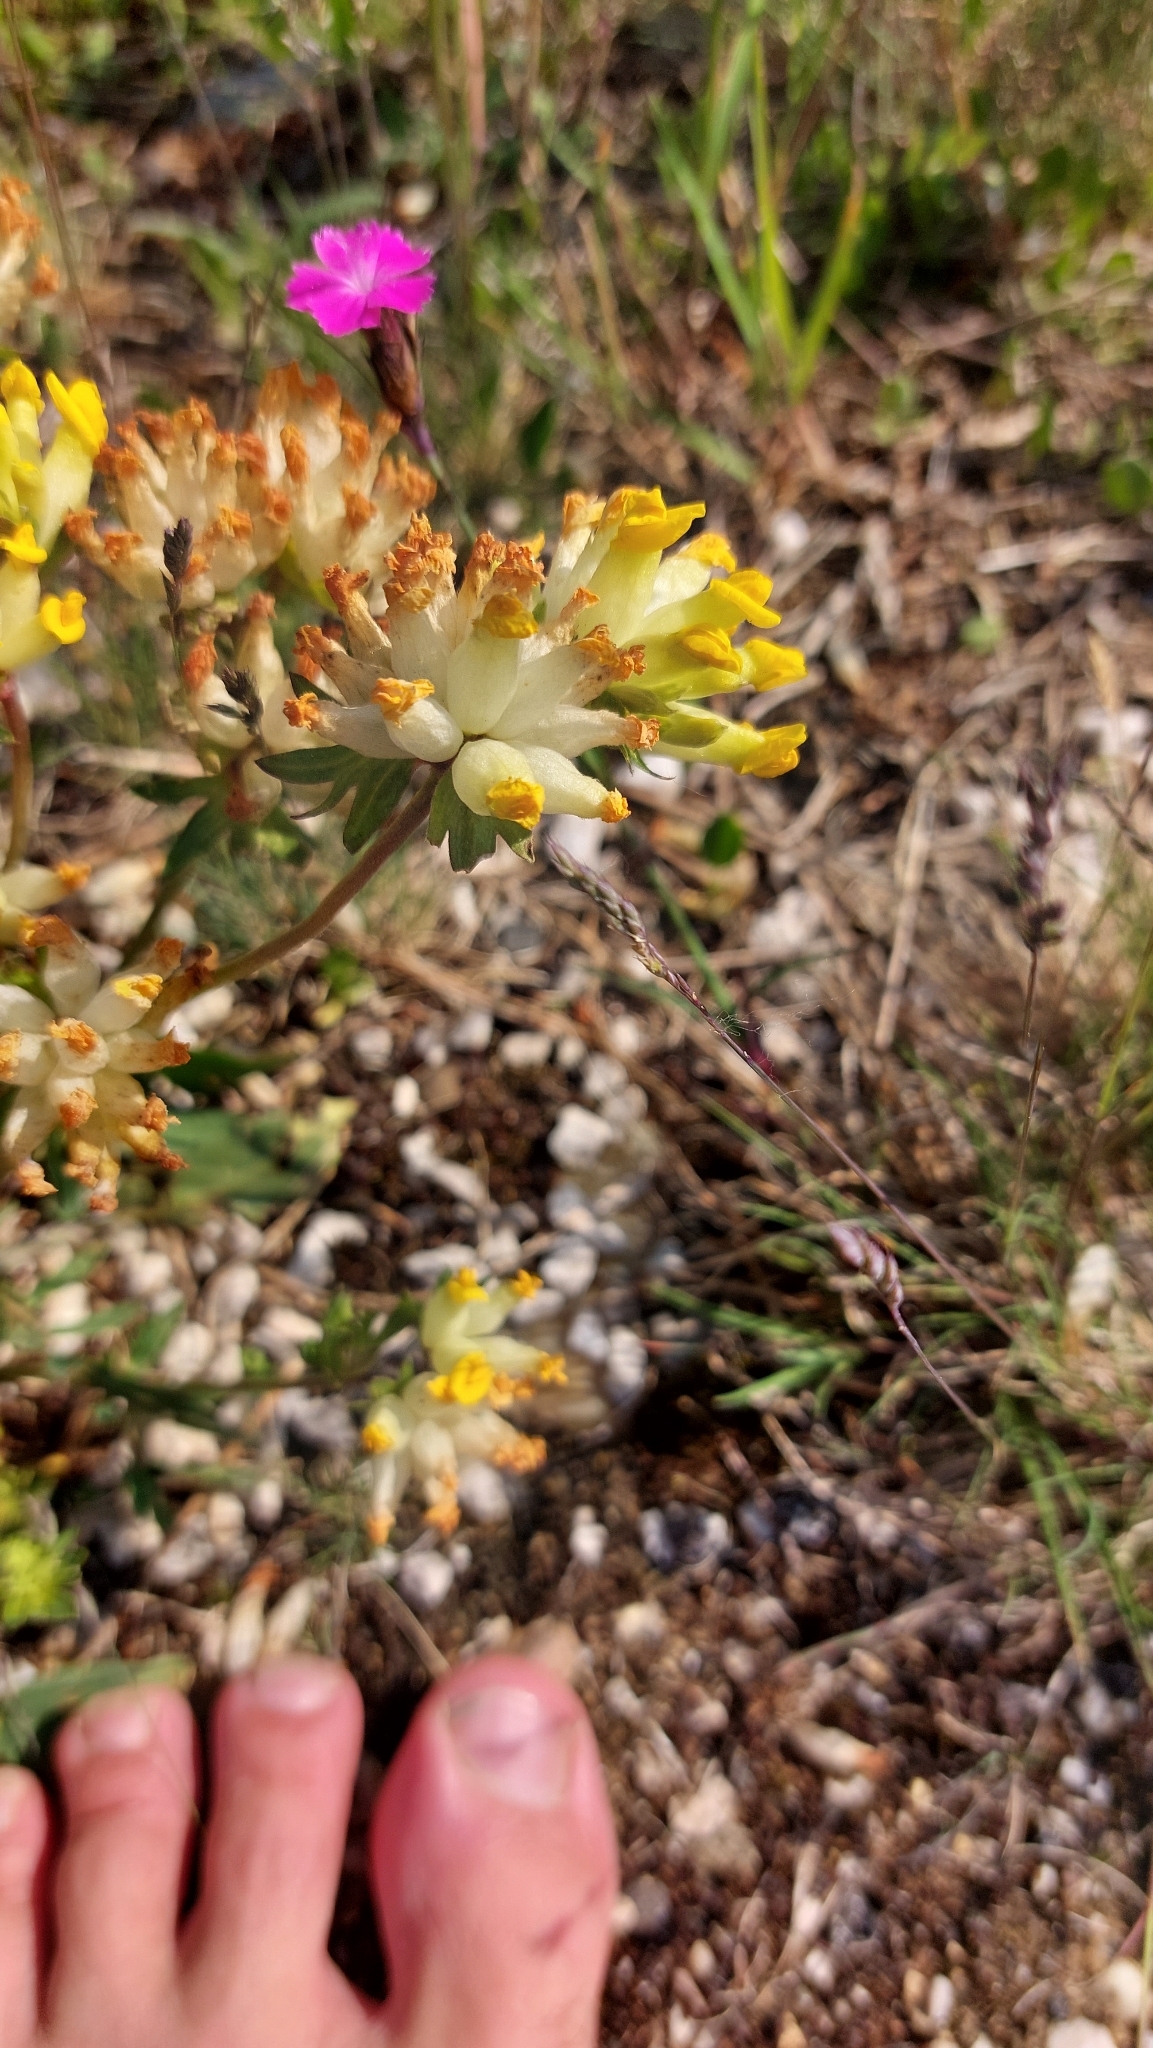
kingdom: Plantae
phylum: Tracheophyta
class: Magnoliopsida
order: Fabales
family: Fabaceae
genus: Anthyllis
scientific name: Anthyllis vulneraria
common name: Kidney vetch
